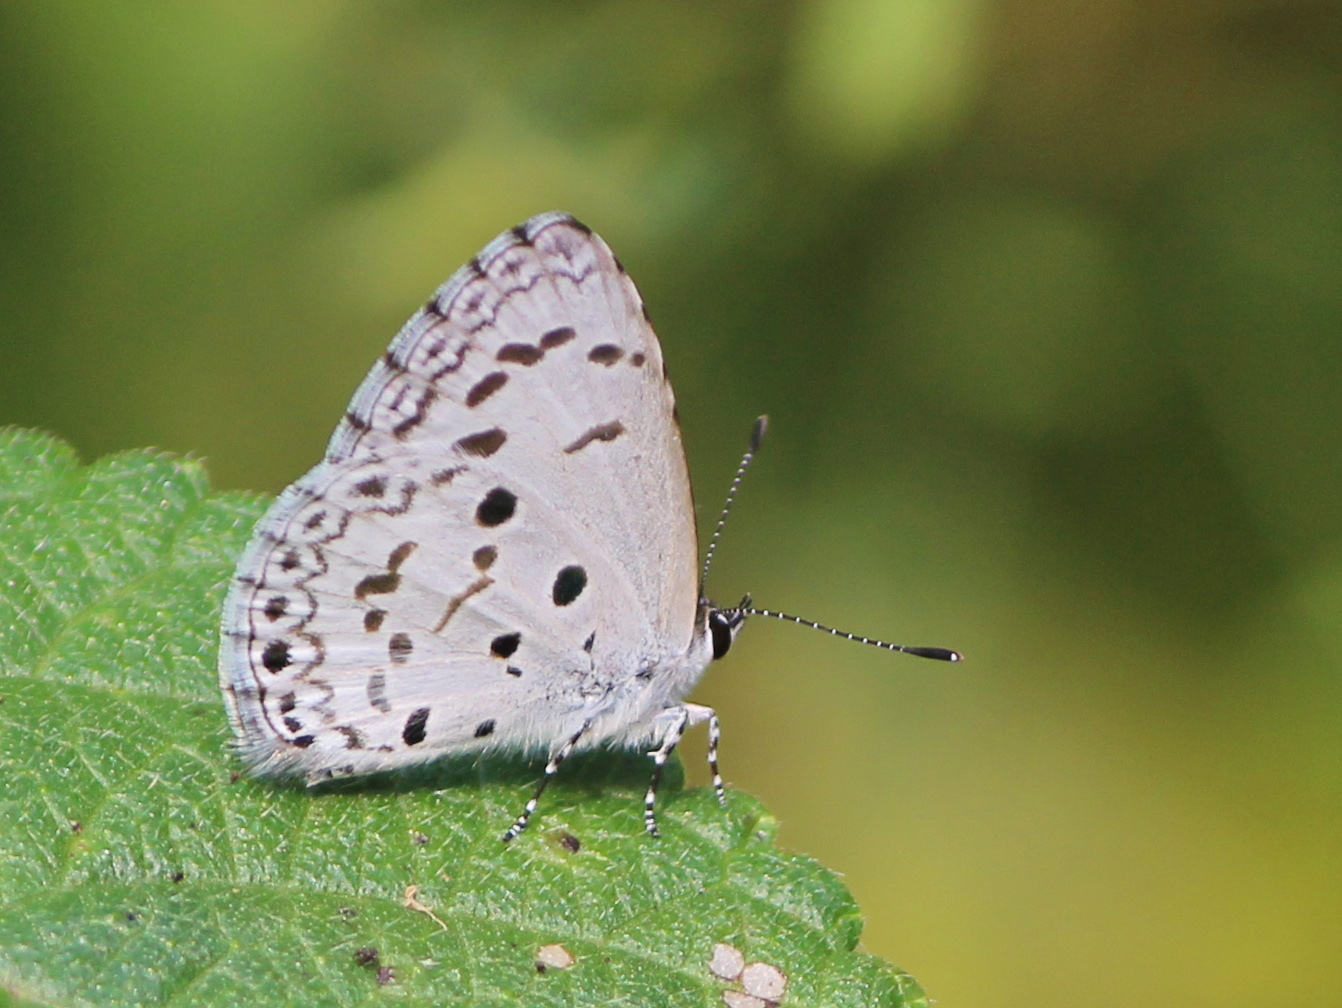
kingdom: Animalia
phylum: Arthropoda
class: Insecta
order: Lepidoptera
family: Lycaenidae
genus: Acytolepis
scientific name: Acytolepis puspa
